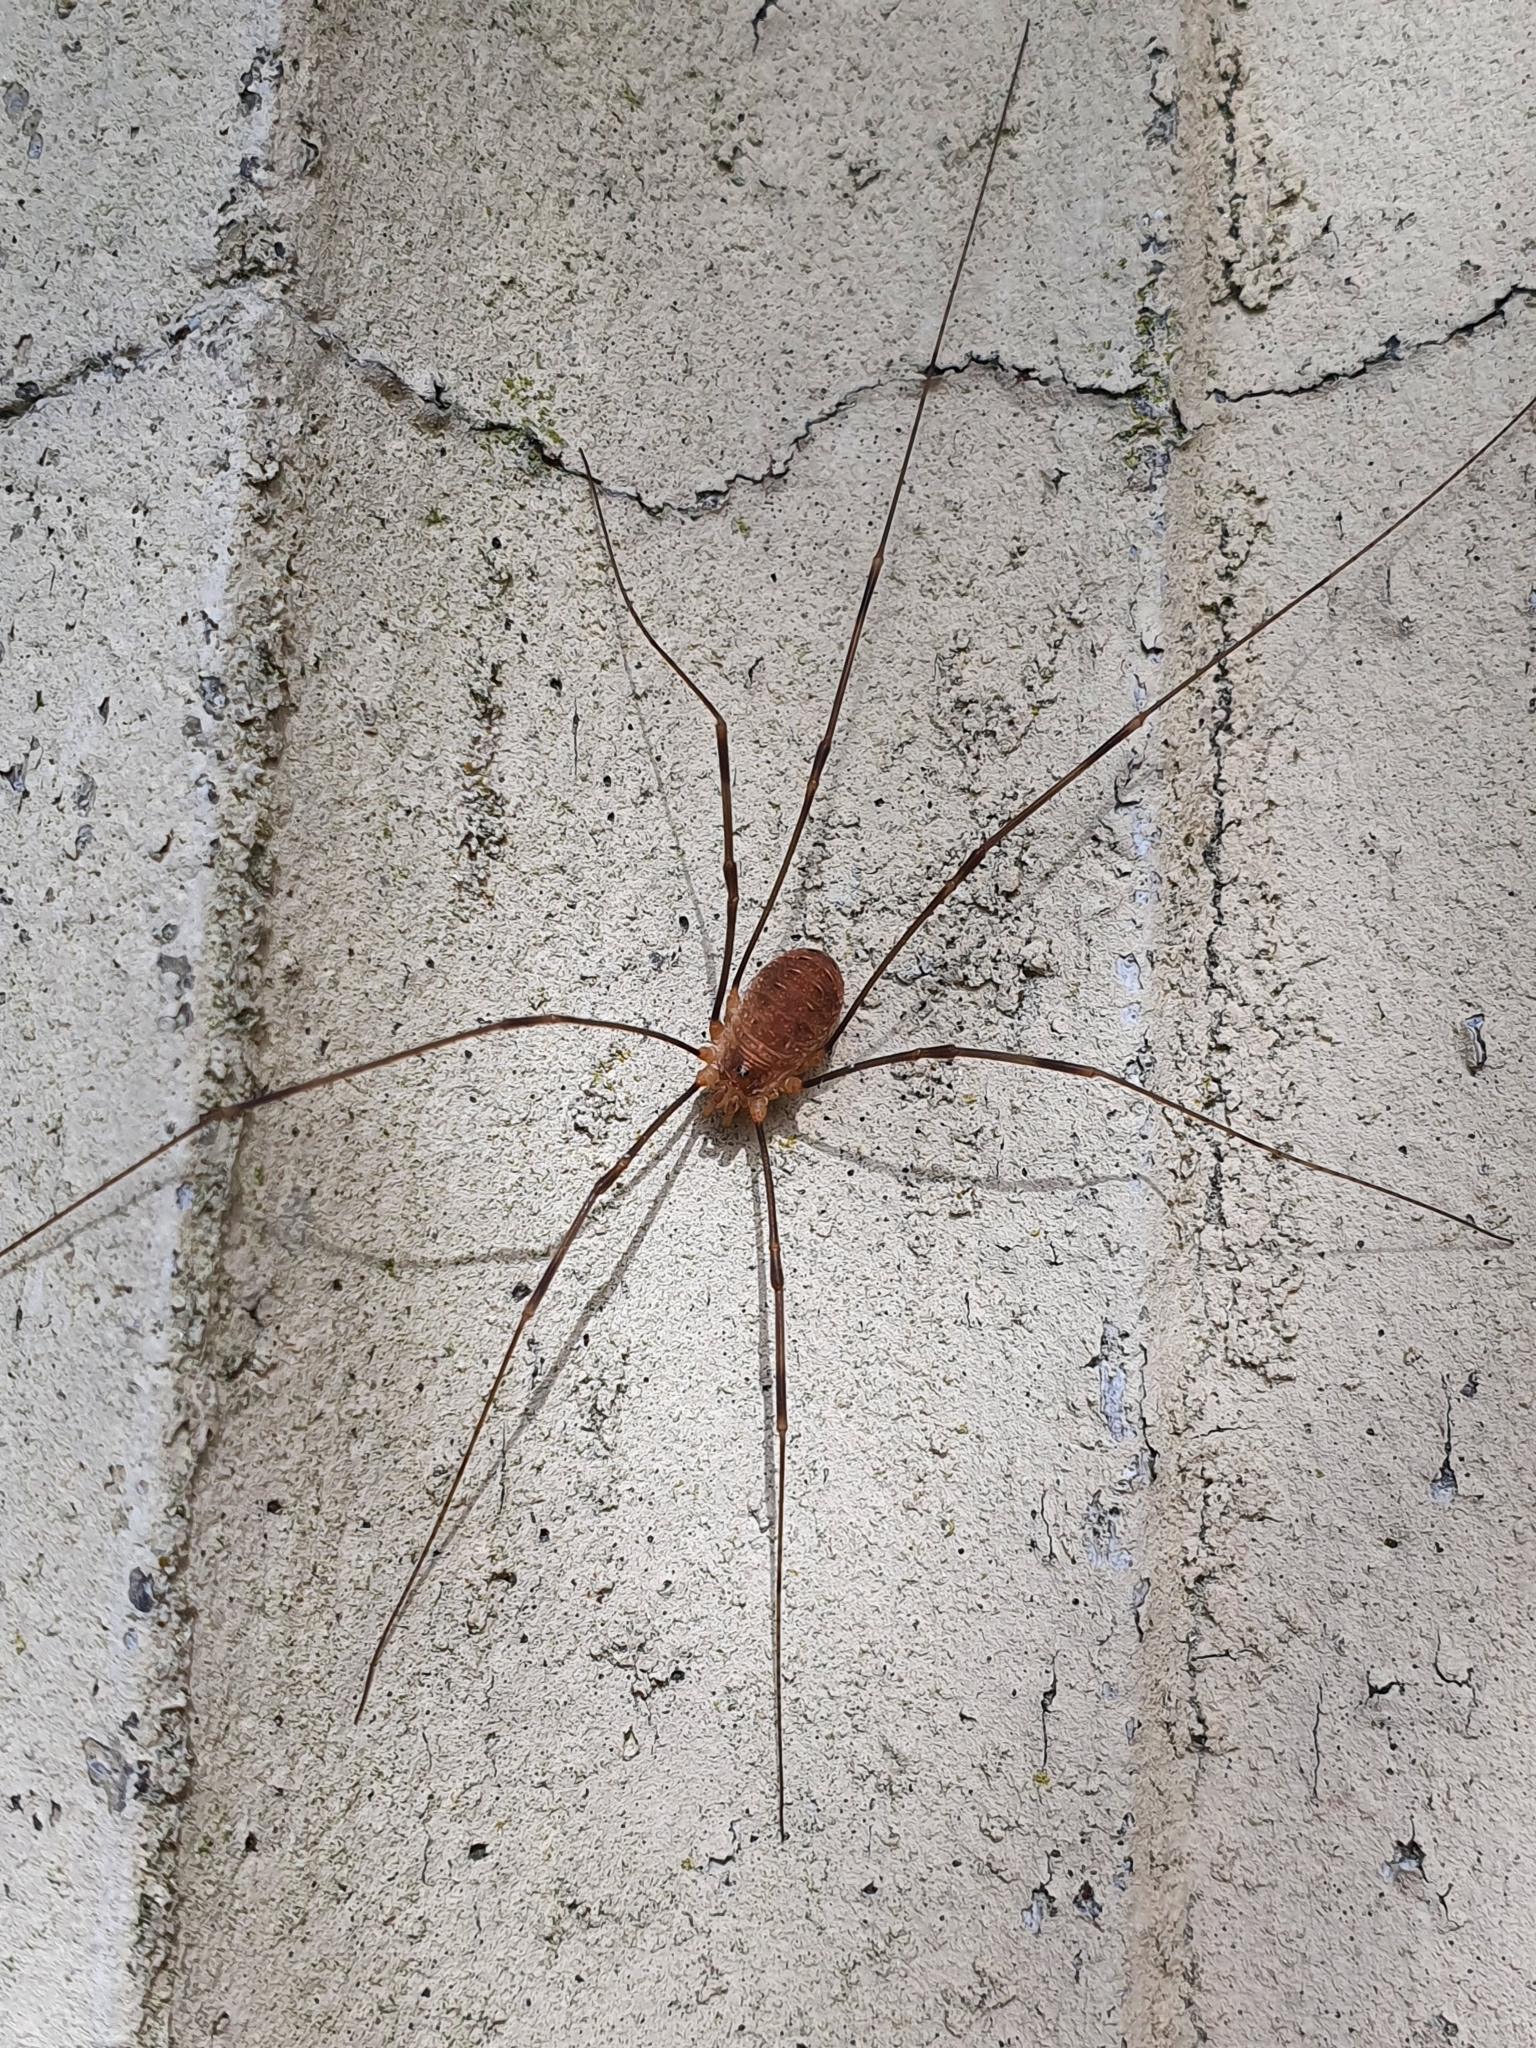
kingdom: Animalia
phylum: Arthropoda
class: Arachnida
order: Opiliones
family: Phalangiidae
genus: Opilio
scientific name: Opilio canestrinii
